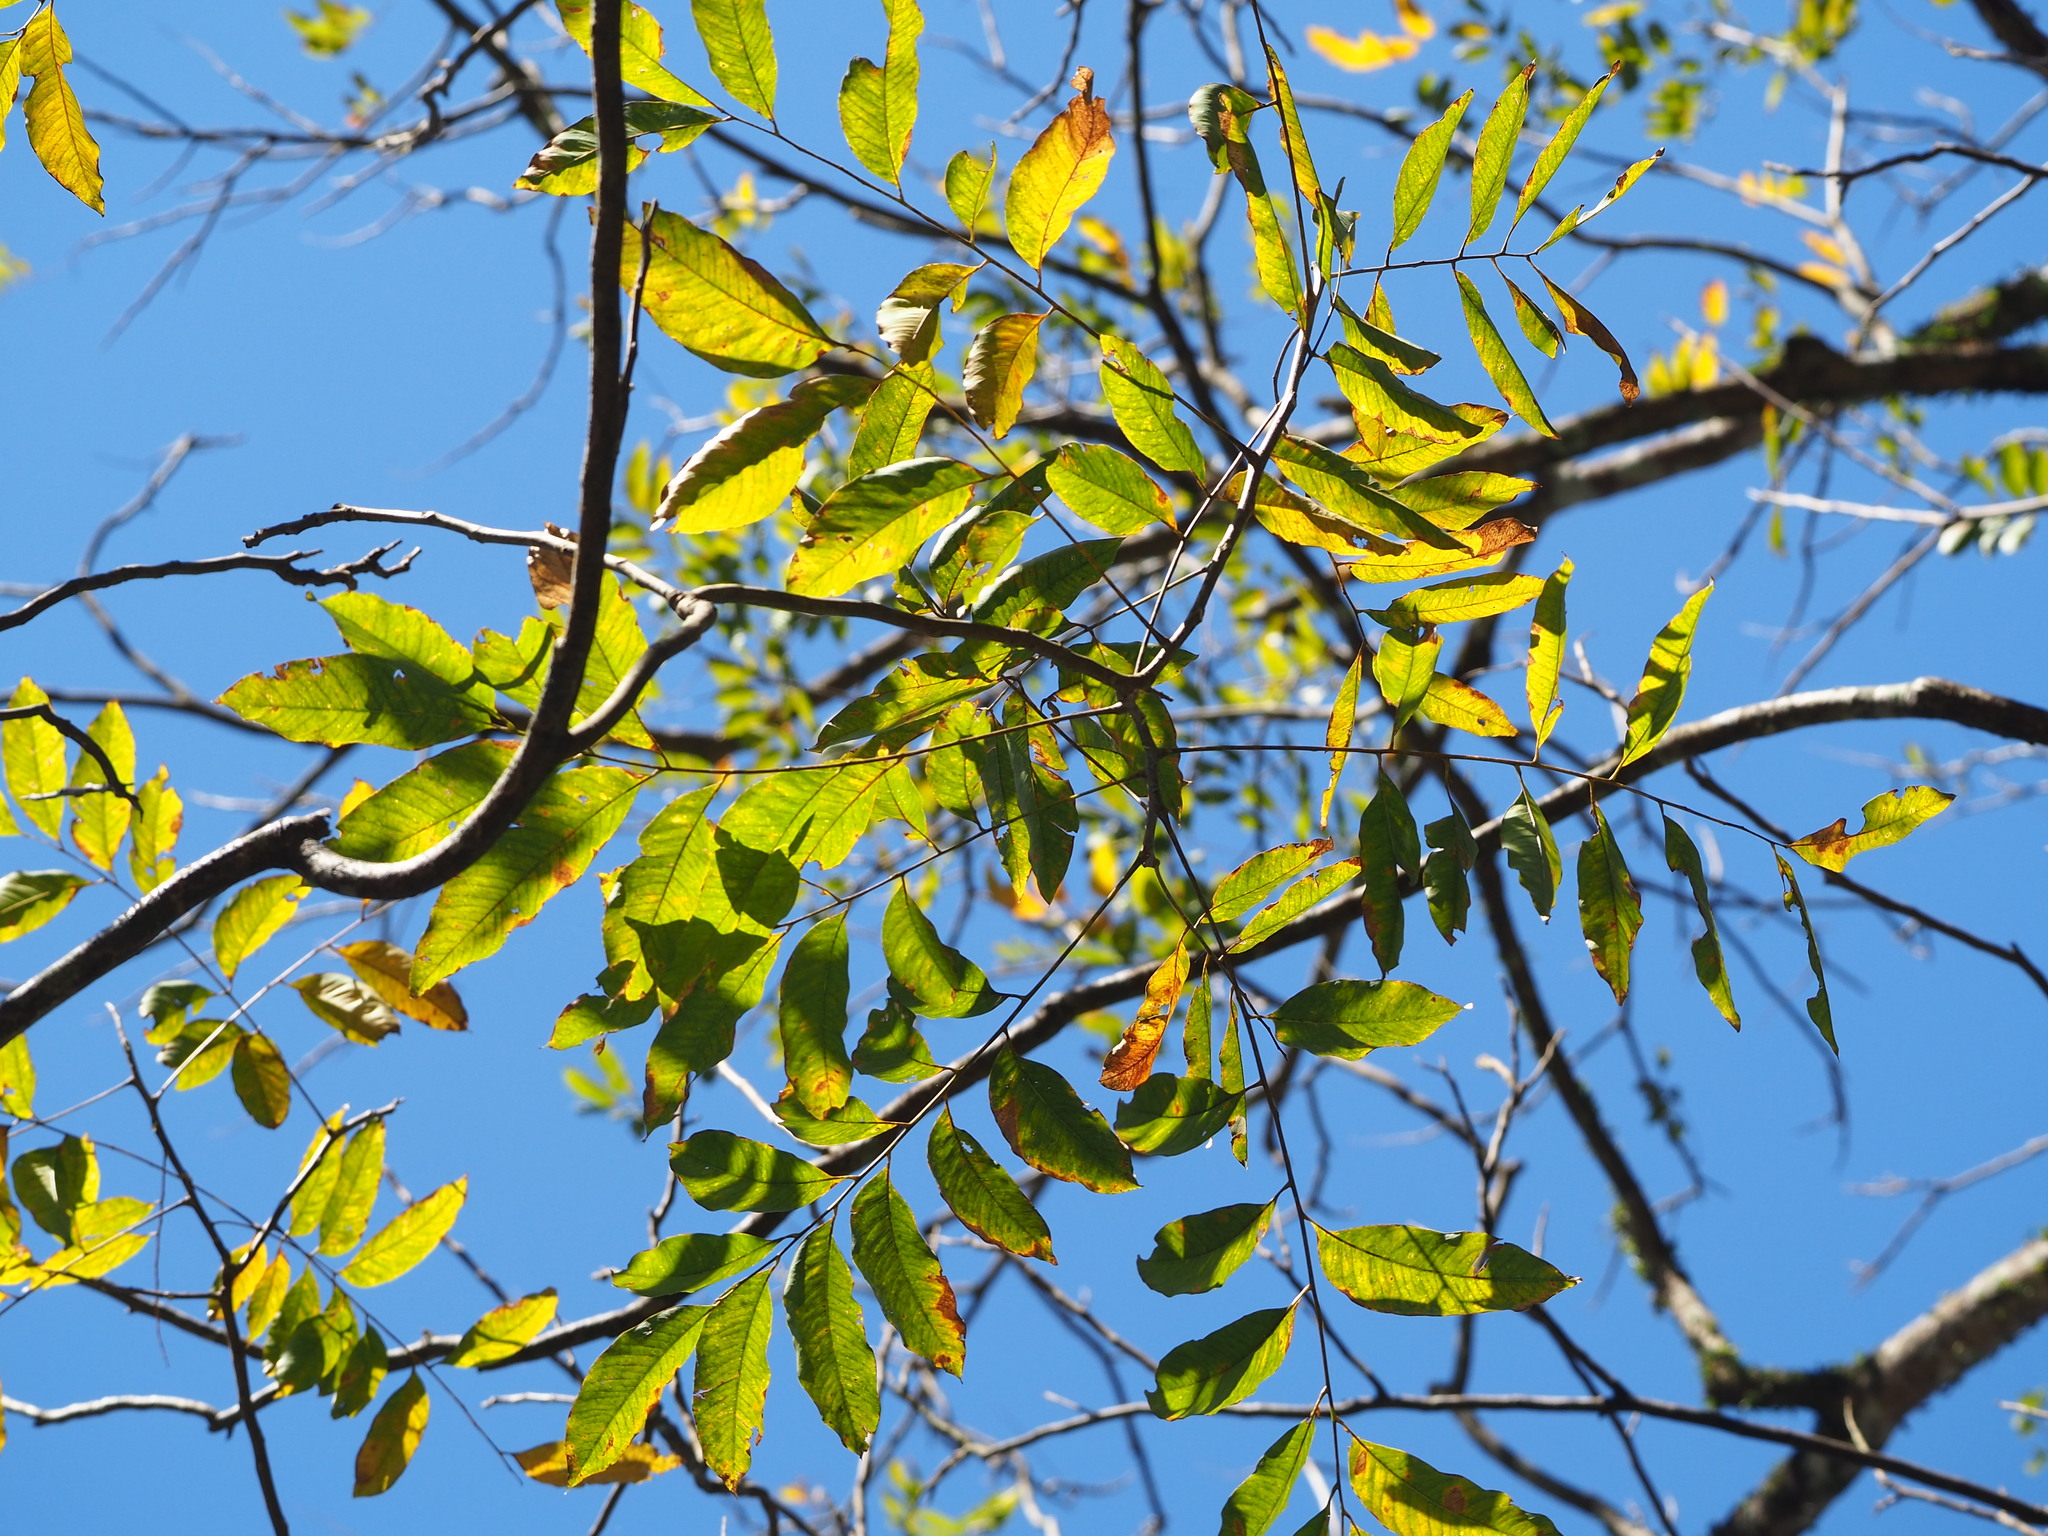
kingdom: Plantae
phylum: Tracheophyta
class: Magnoliopsida
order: Sapindales
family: Sapindaceae
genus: Sapindus
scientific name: Sapindus mukorossi
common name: Chinese soapberry
